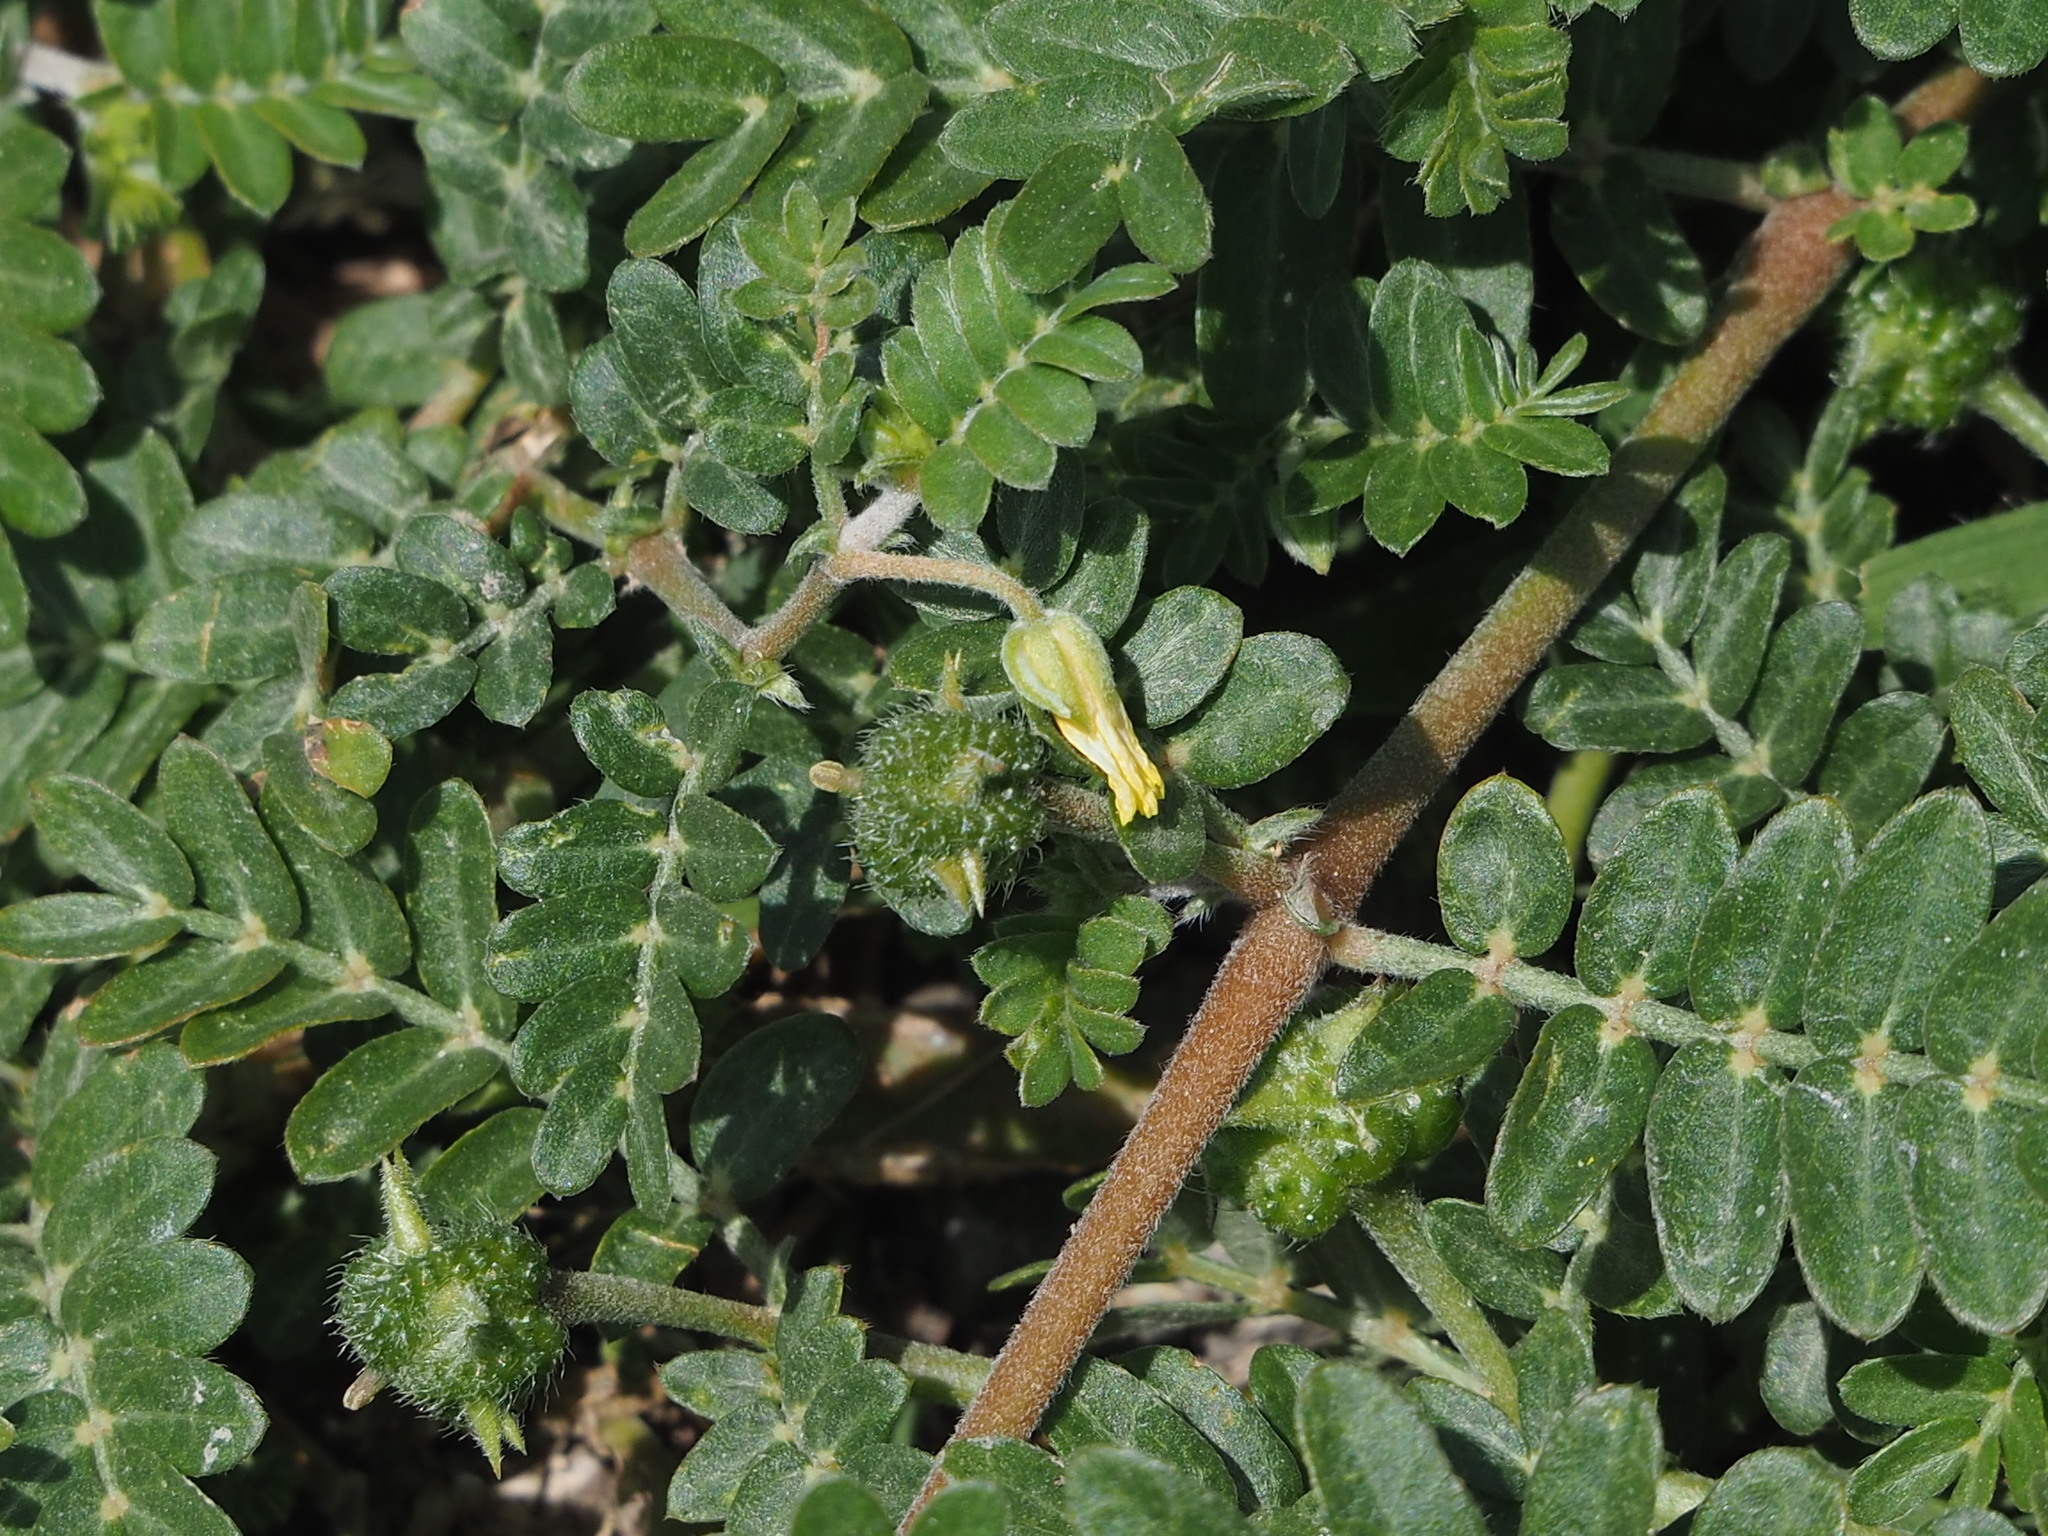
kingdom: Plantae
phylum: Tracheophyta
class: Magnoliopsida
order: Zygophyllales
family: Zygophyllaceae
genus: Tribulus
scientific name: Tribulus cistoides
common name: Jamaican feverplant
